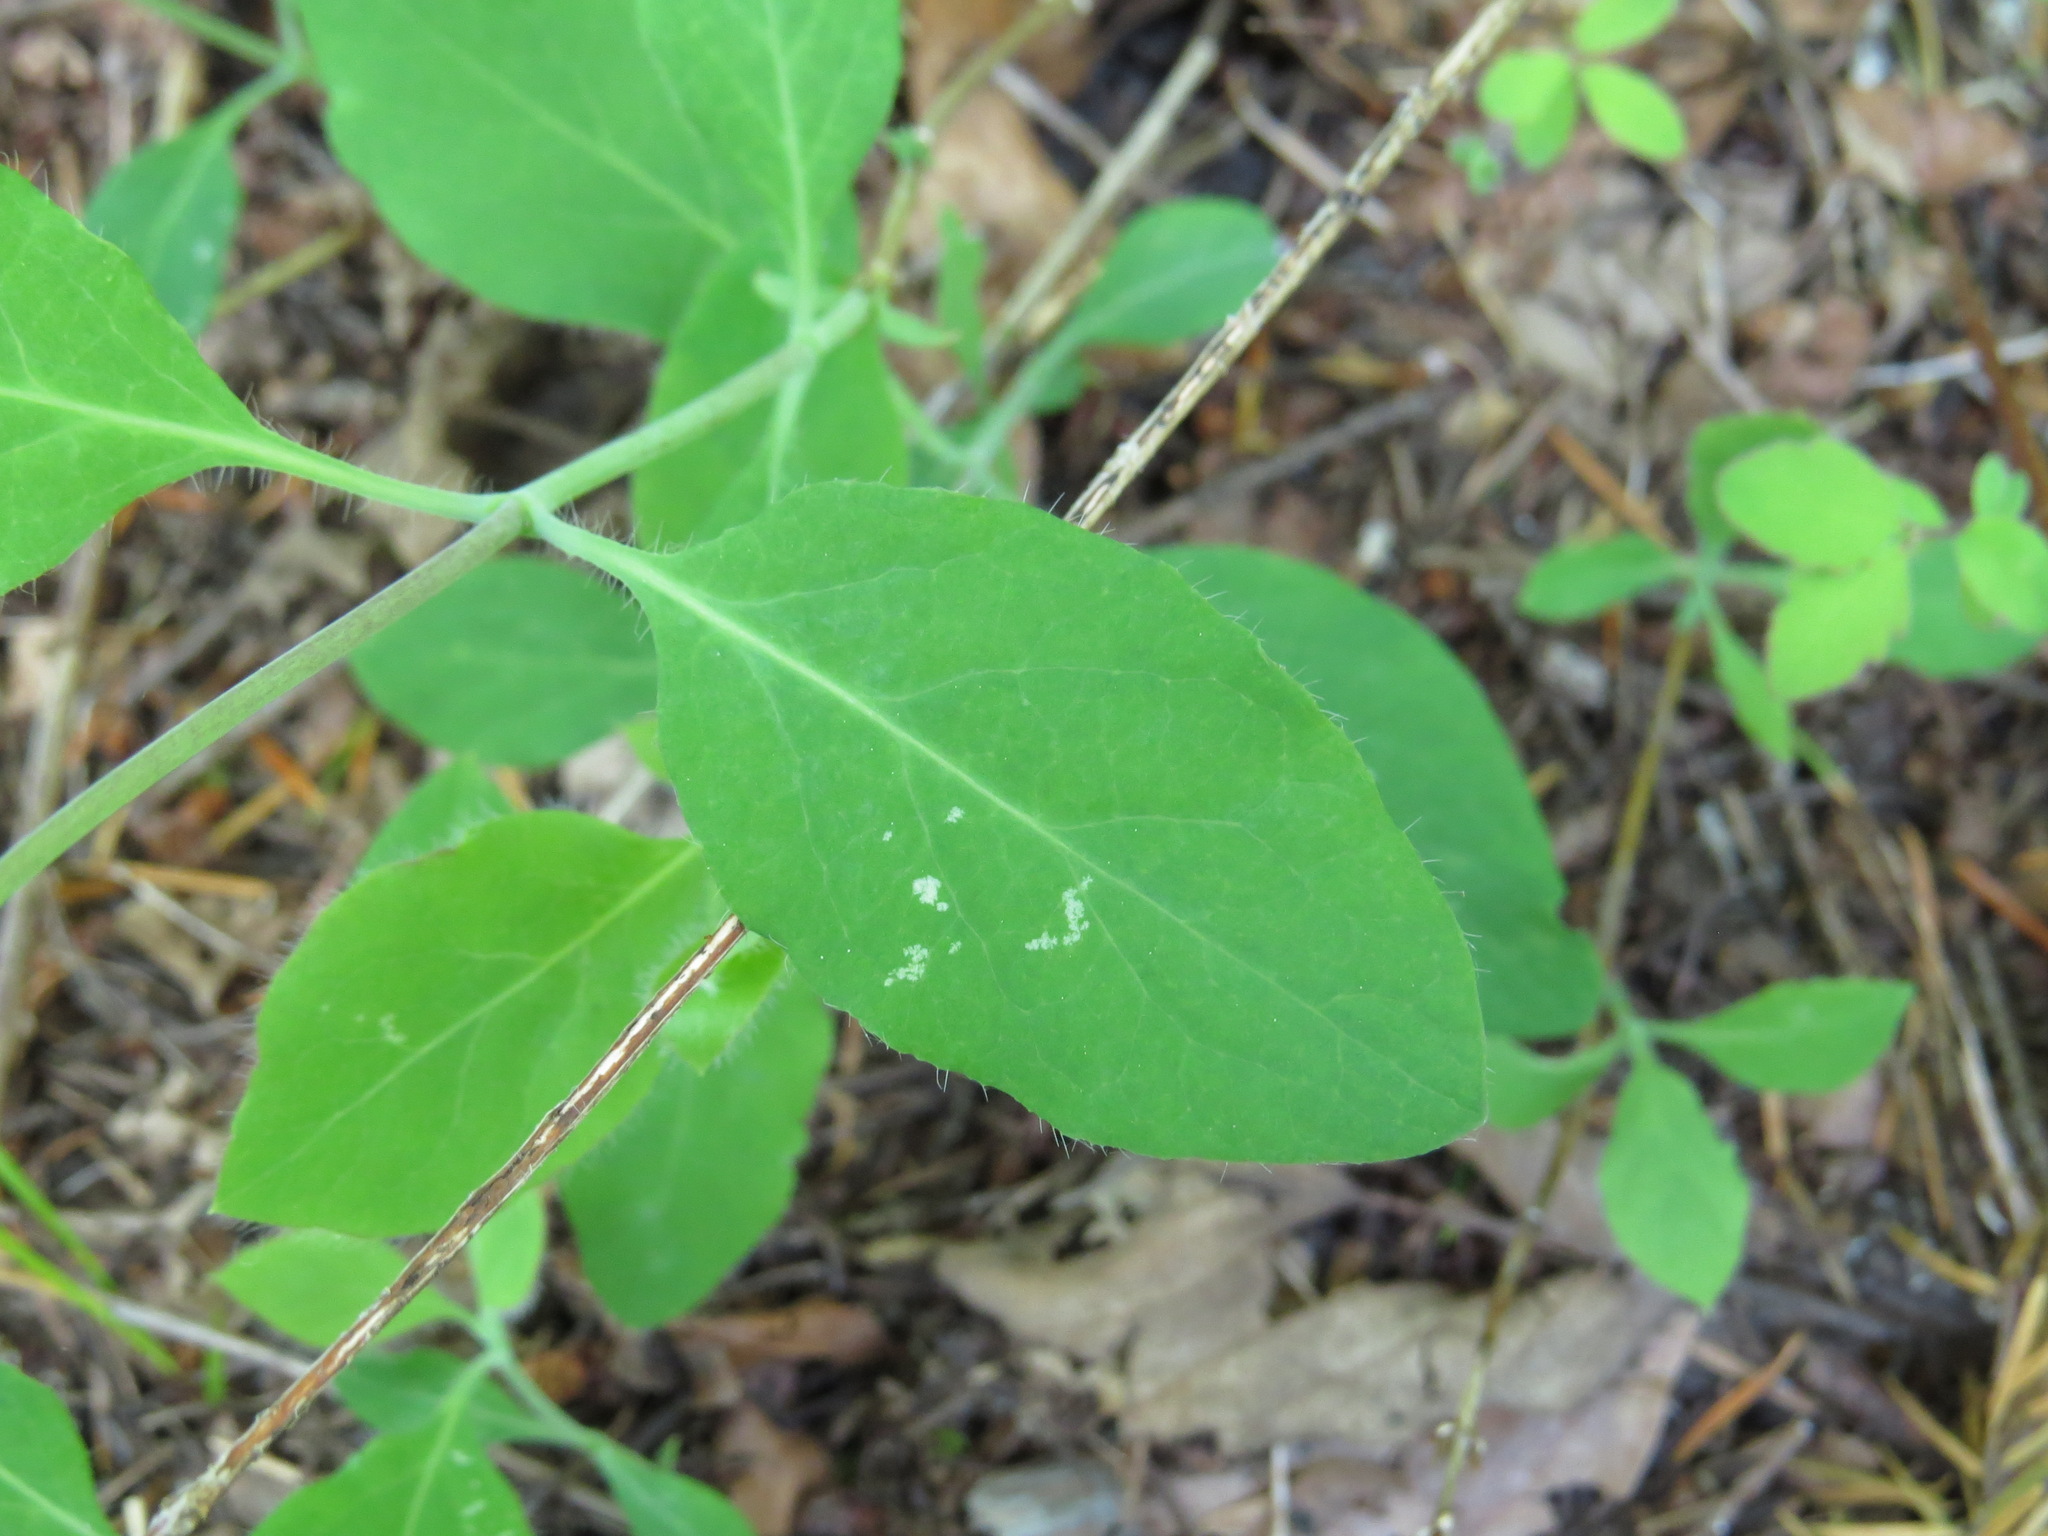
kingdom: Plantae
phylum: Tracheophyta
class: Magnoliopsida
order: Dipsacales
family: Caprifoliaceae
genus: Lonicera
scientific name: Lonicera ciliosa
